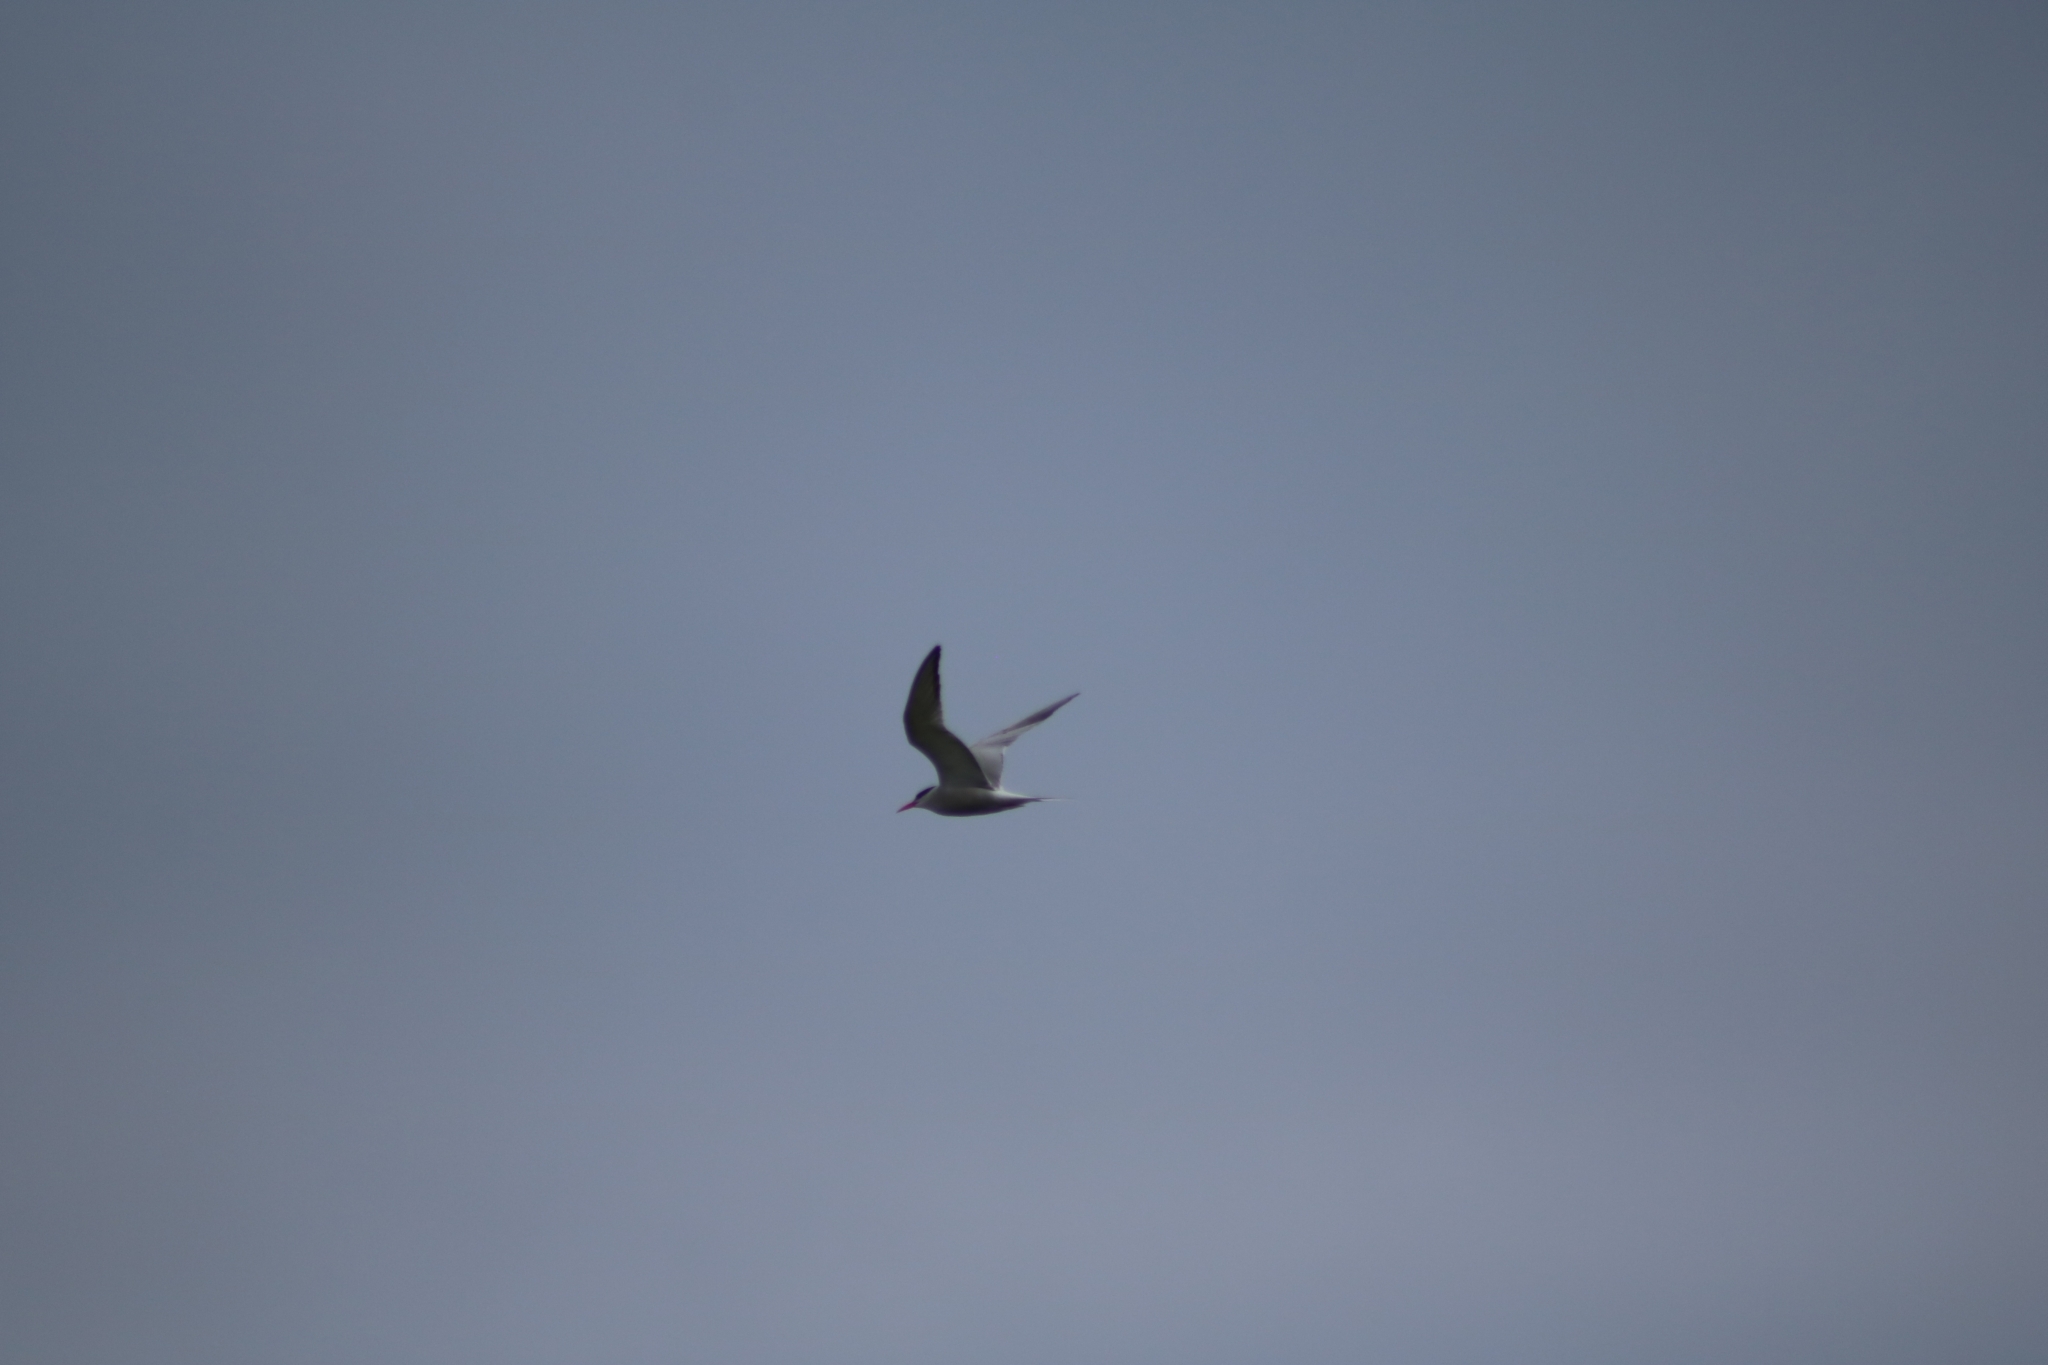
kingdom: Animalia
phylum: Chordata
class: Aves
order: Charadriiformes
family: Laridae
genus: Sterna
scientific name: Sterna hirundo
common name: Common tern
